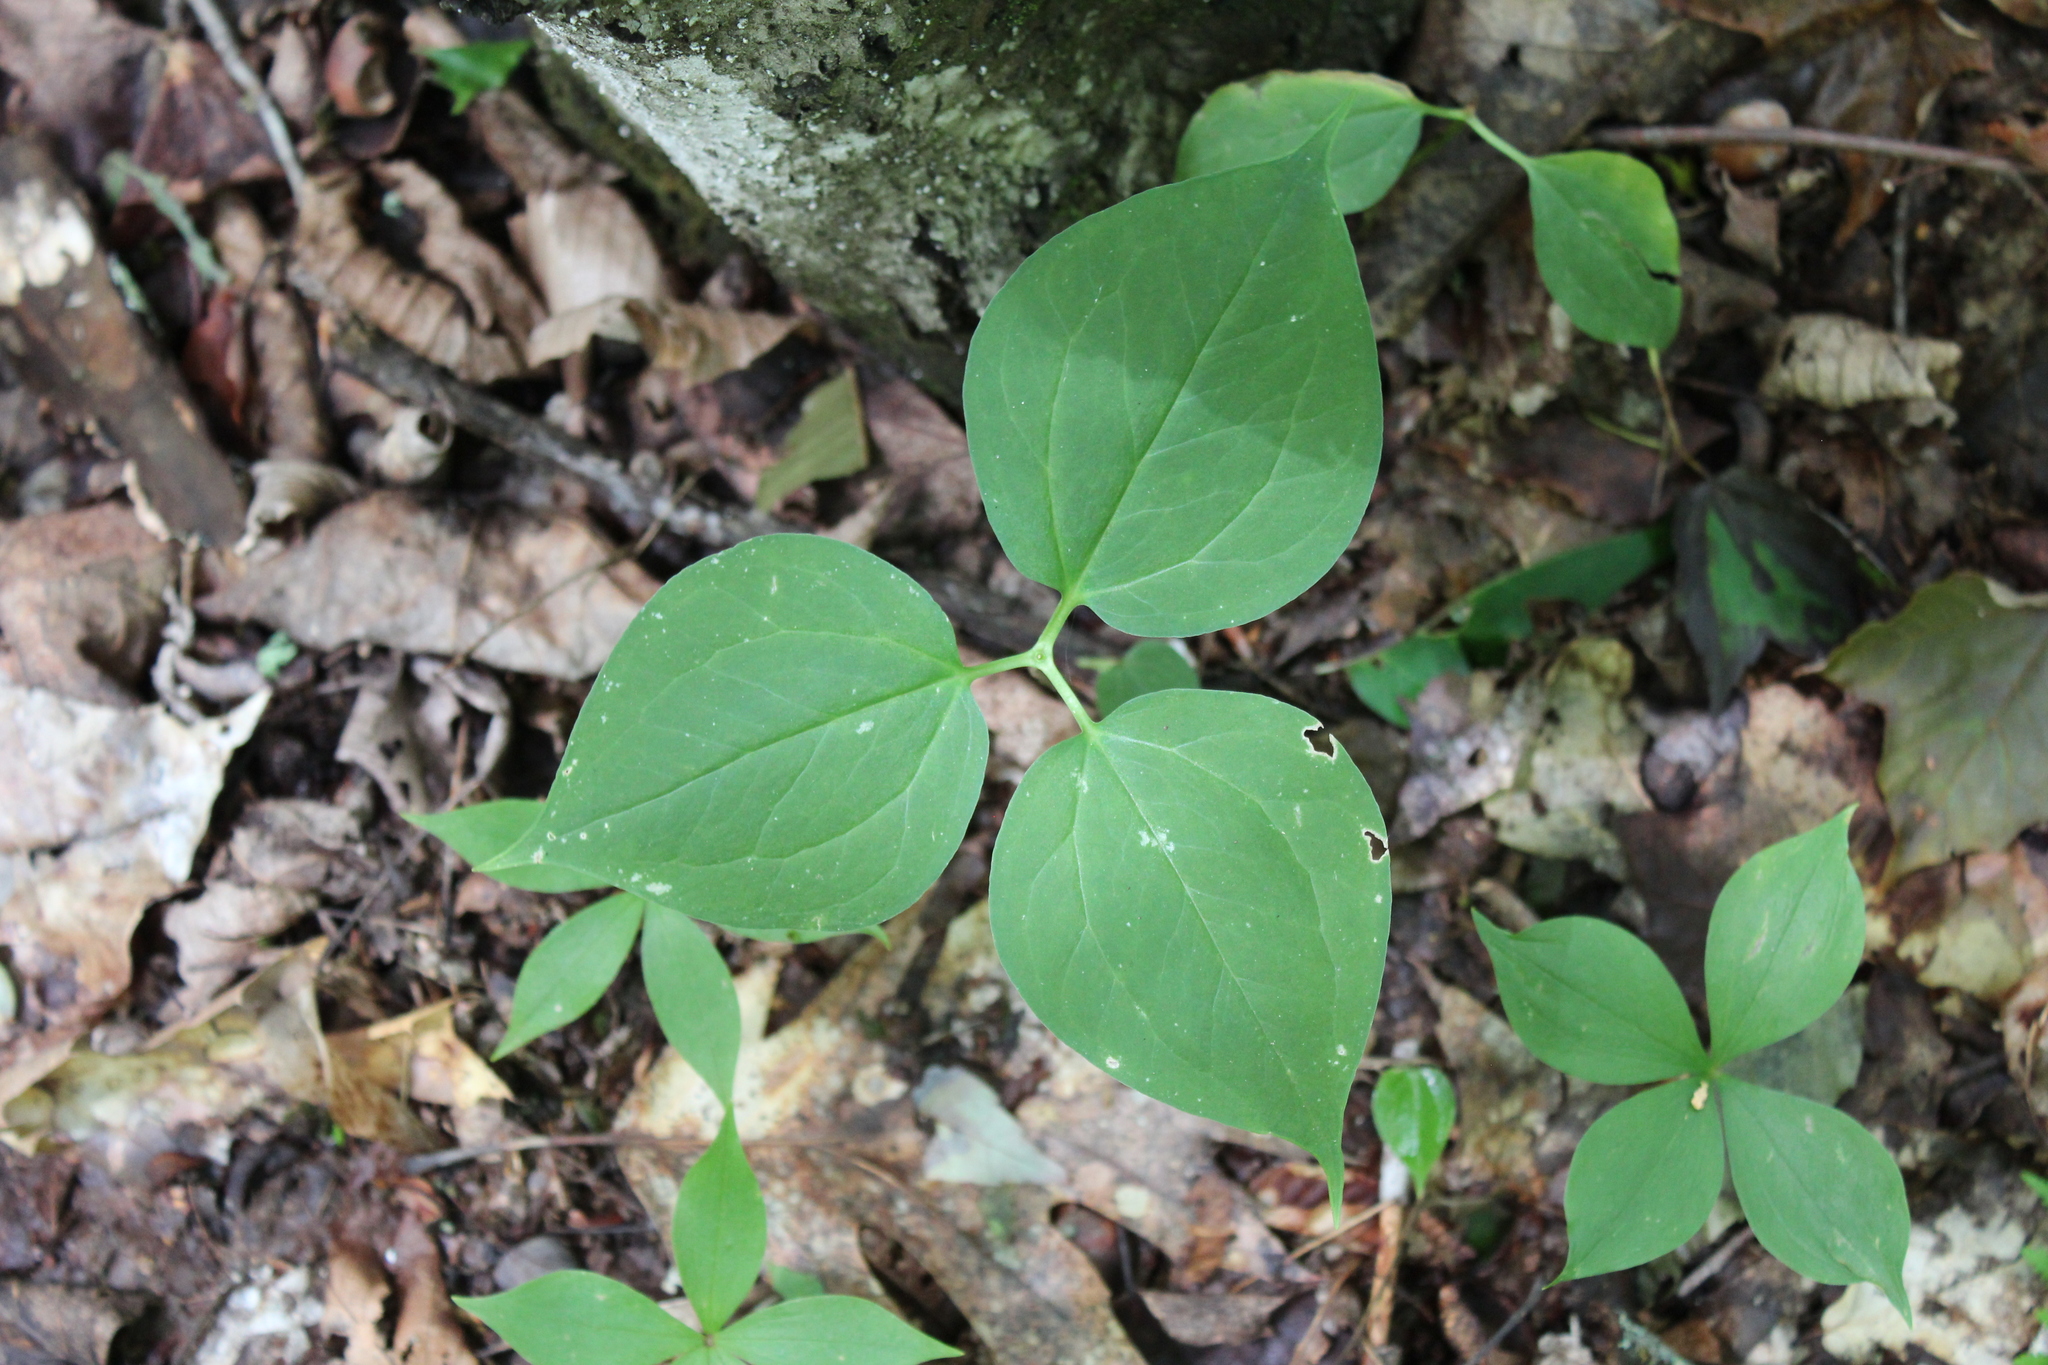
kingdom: Plantae
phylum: Tracheophyta
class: Liliopsida
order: Liliales
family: Melanthiaceae
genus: Trillium
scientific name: Trillium undulatum
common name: Paint trillium
